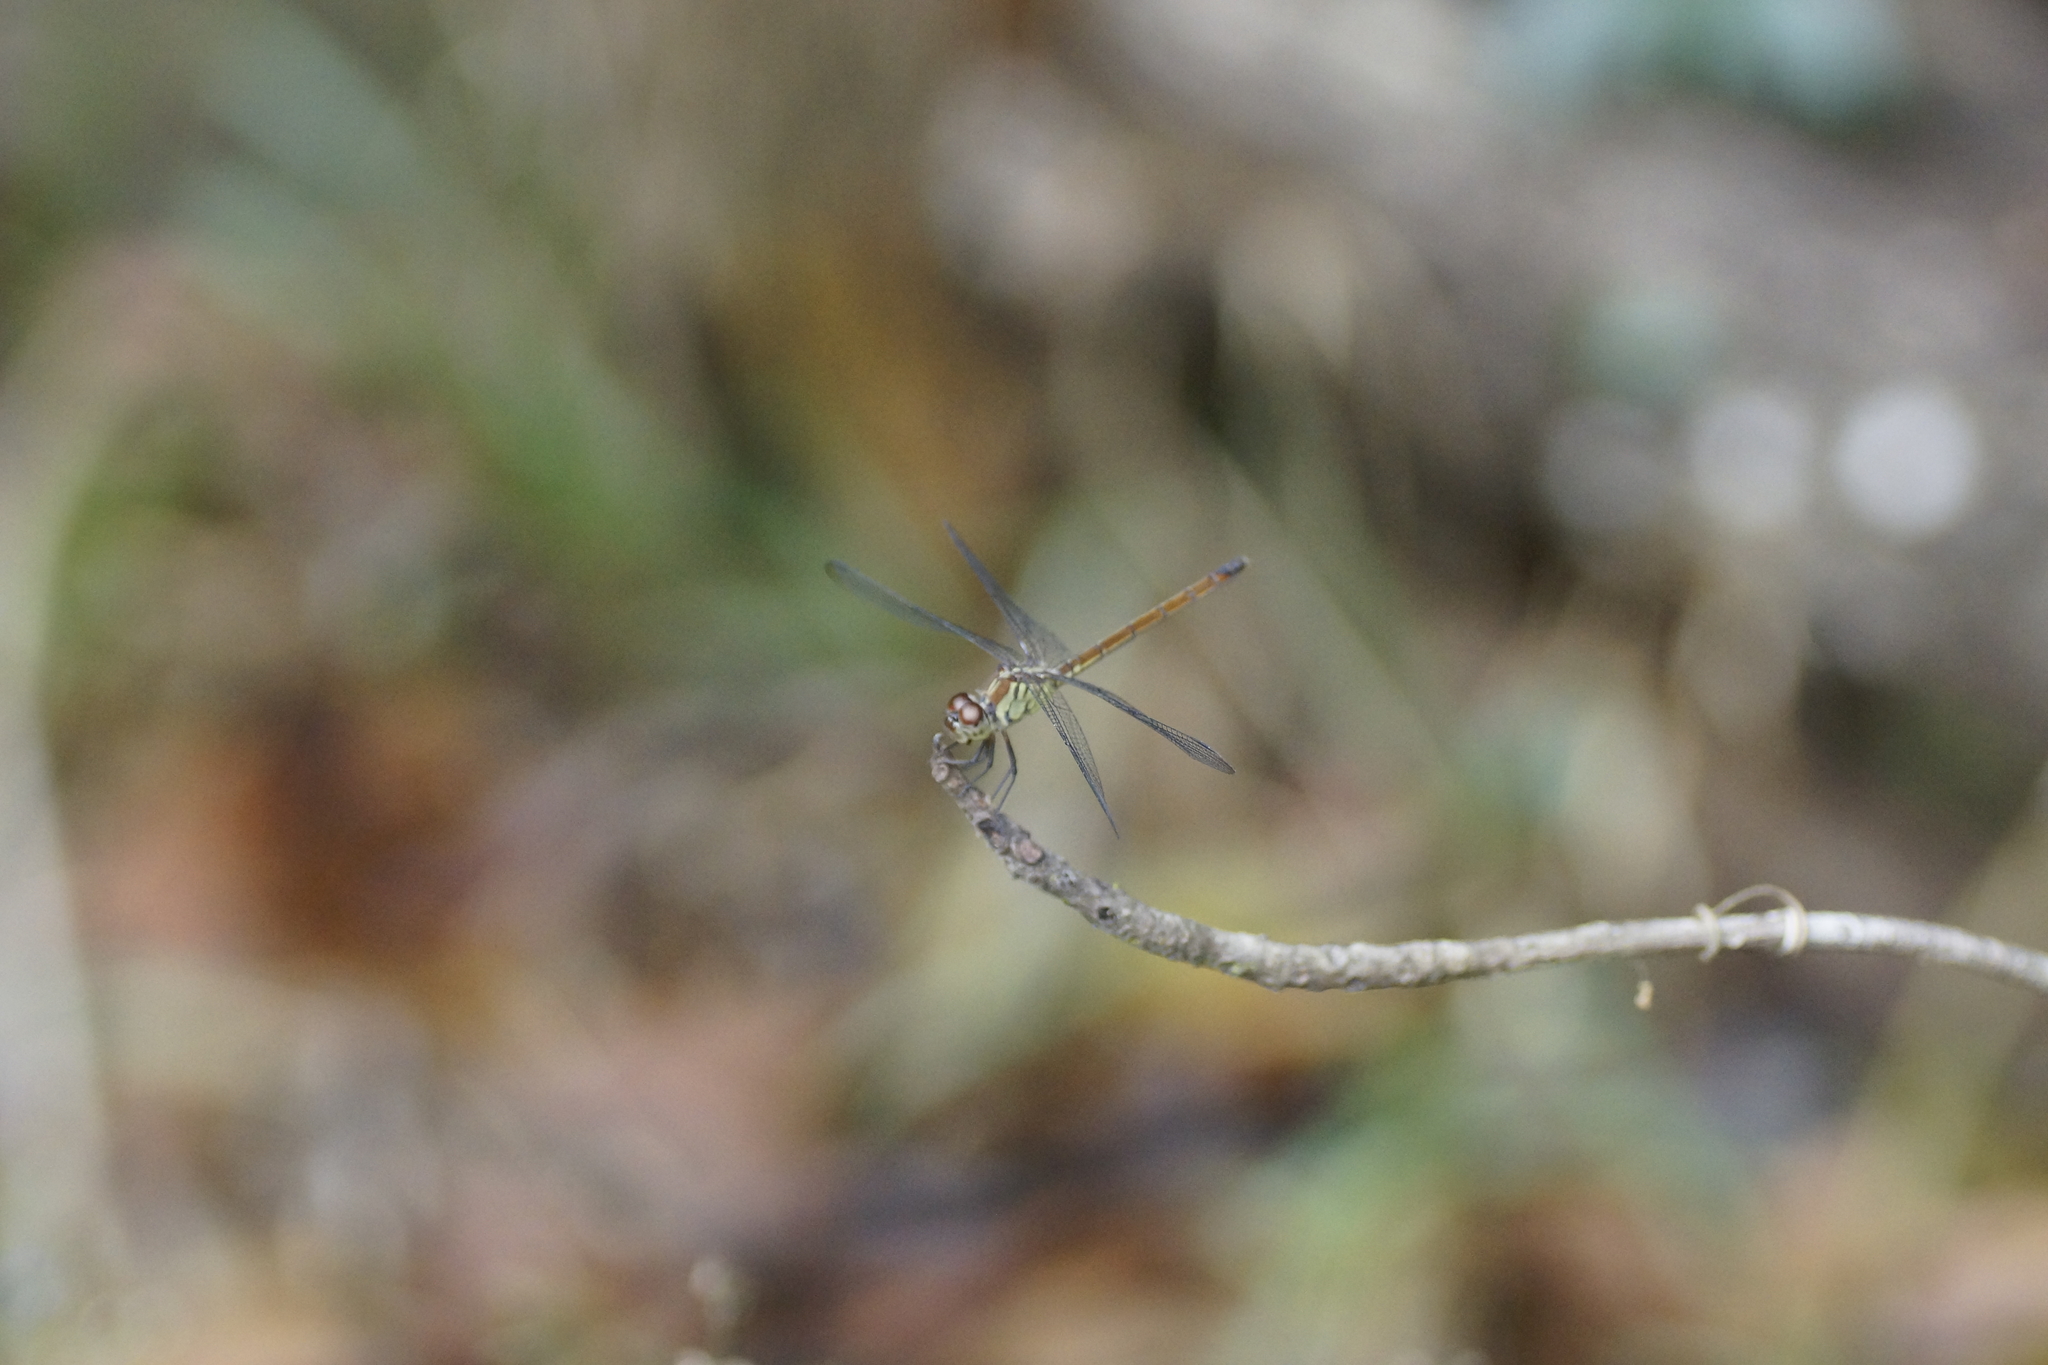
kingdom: Animalia
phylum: Arthropoda
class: Insecta
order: Odonata
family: Libellulidae
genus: Lathrecista
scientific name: Lathrecista asiatica
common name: Scarlet grenadier
